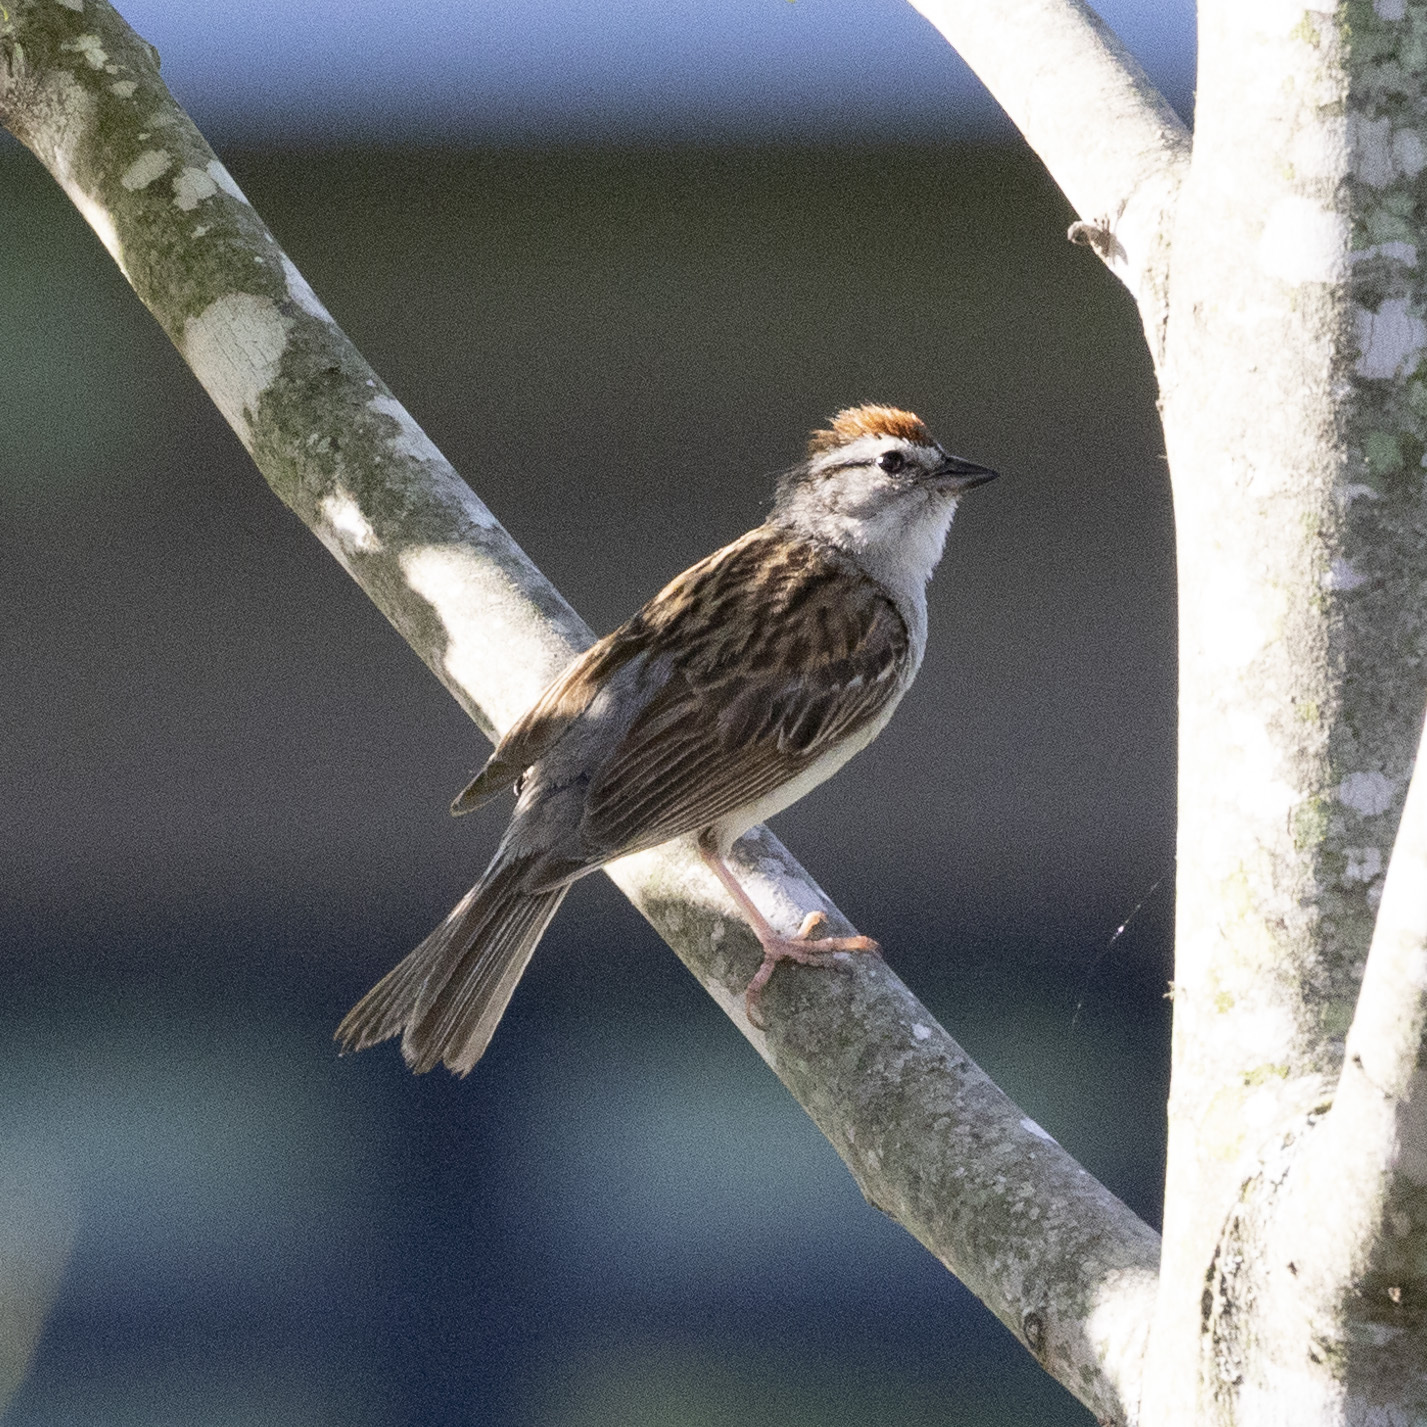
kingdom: Animalia
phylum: Chordata
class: Aves
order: Passeriformes
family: Passerellidae
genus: Spizella
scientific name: Spizella passerina
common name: Chipping sparrow
